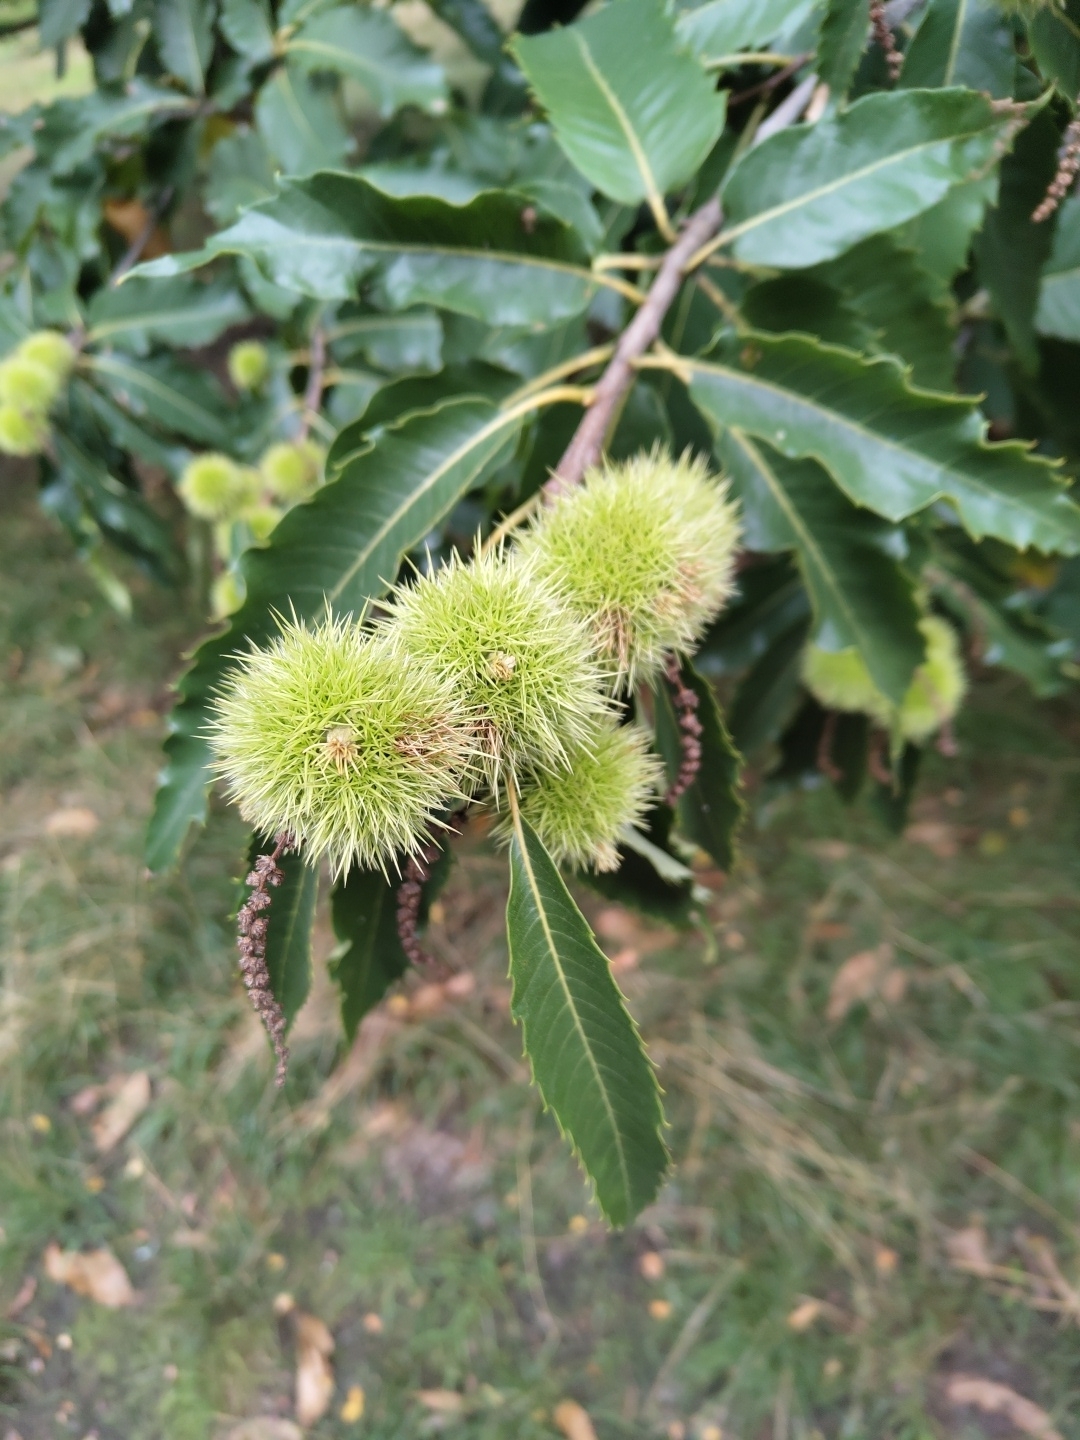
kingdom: Plantae
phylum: Tracheophyta
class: Magnoliopsida
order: Fagales
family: Fagaceae
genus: Castanea
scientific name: Castanea sativa
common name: Sweet chestnut
